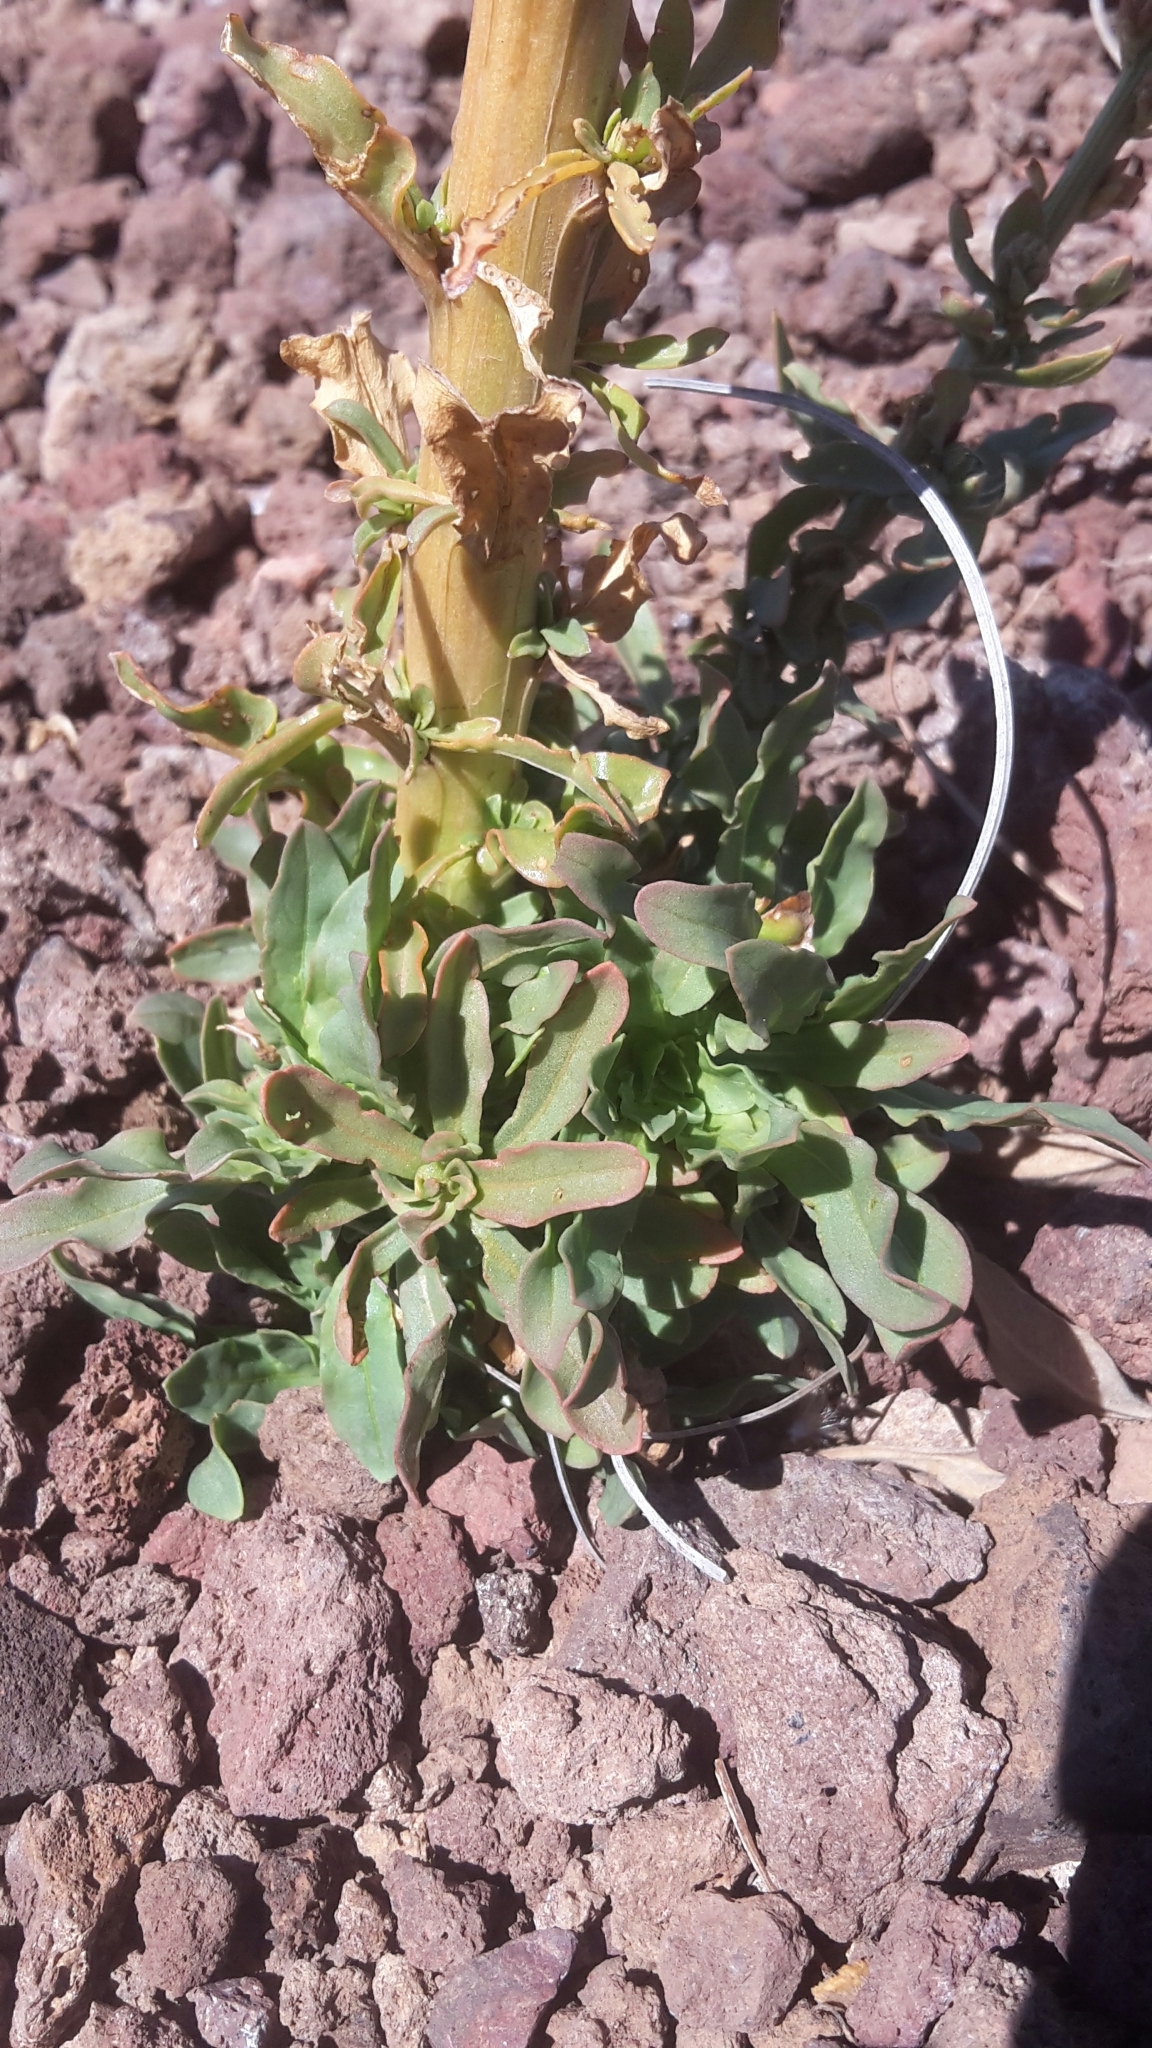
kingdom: Plantae
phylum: Tracheophyta
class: Magnoliopsida
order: Brassicales
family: Resedaceae
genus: Reseda
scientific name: Reseda luteola
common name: Weld
